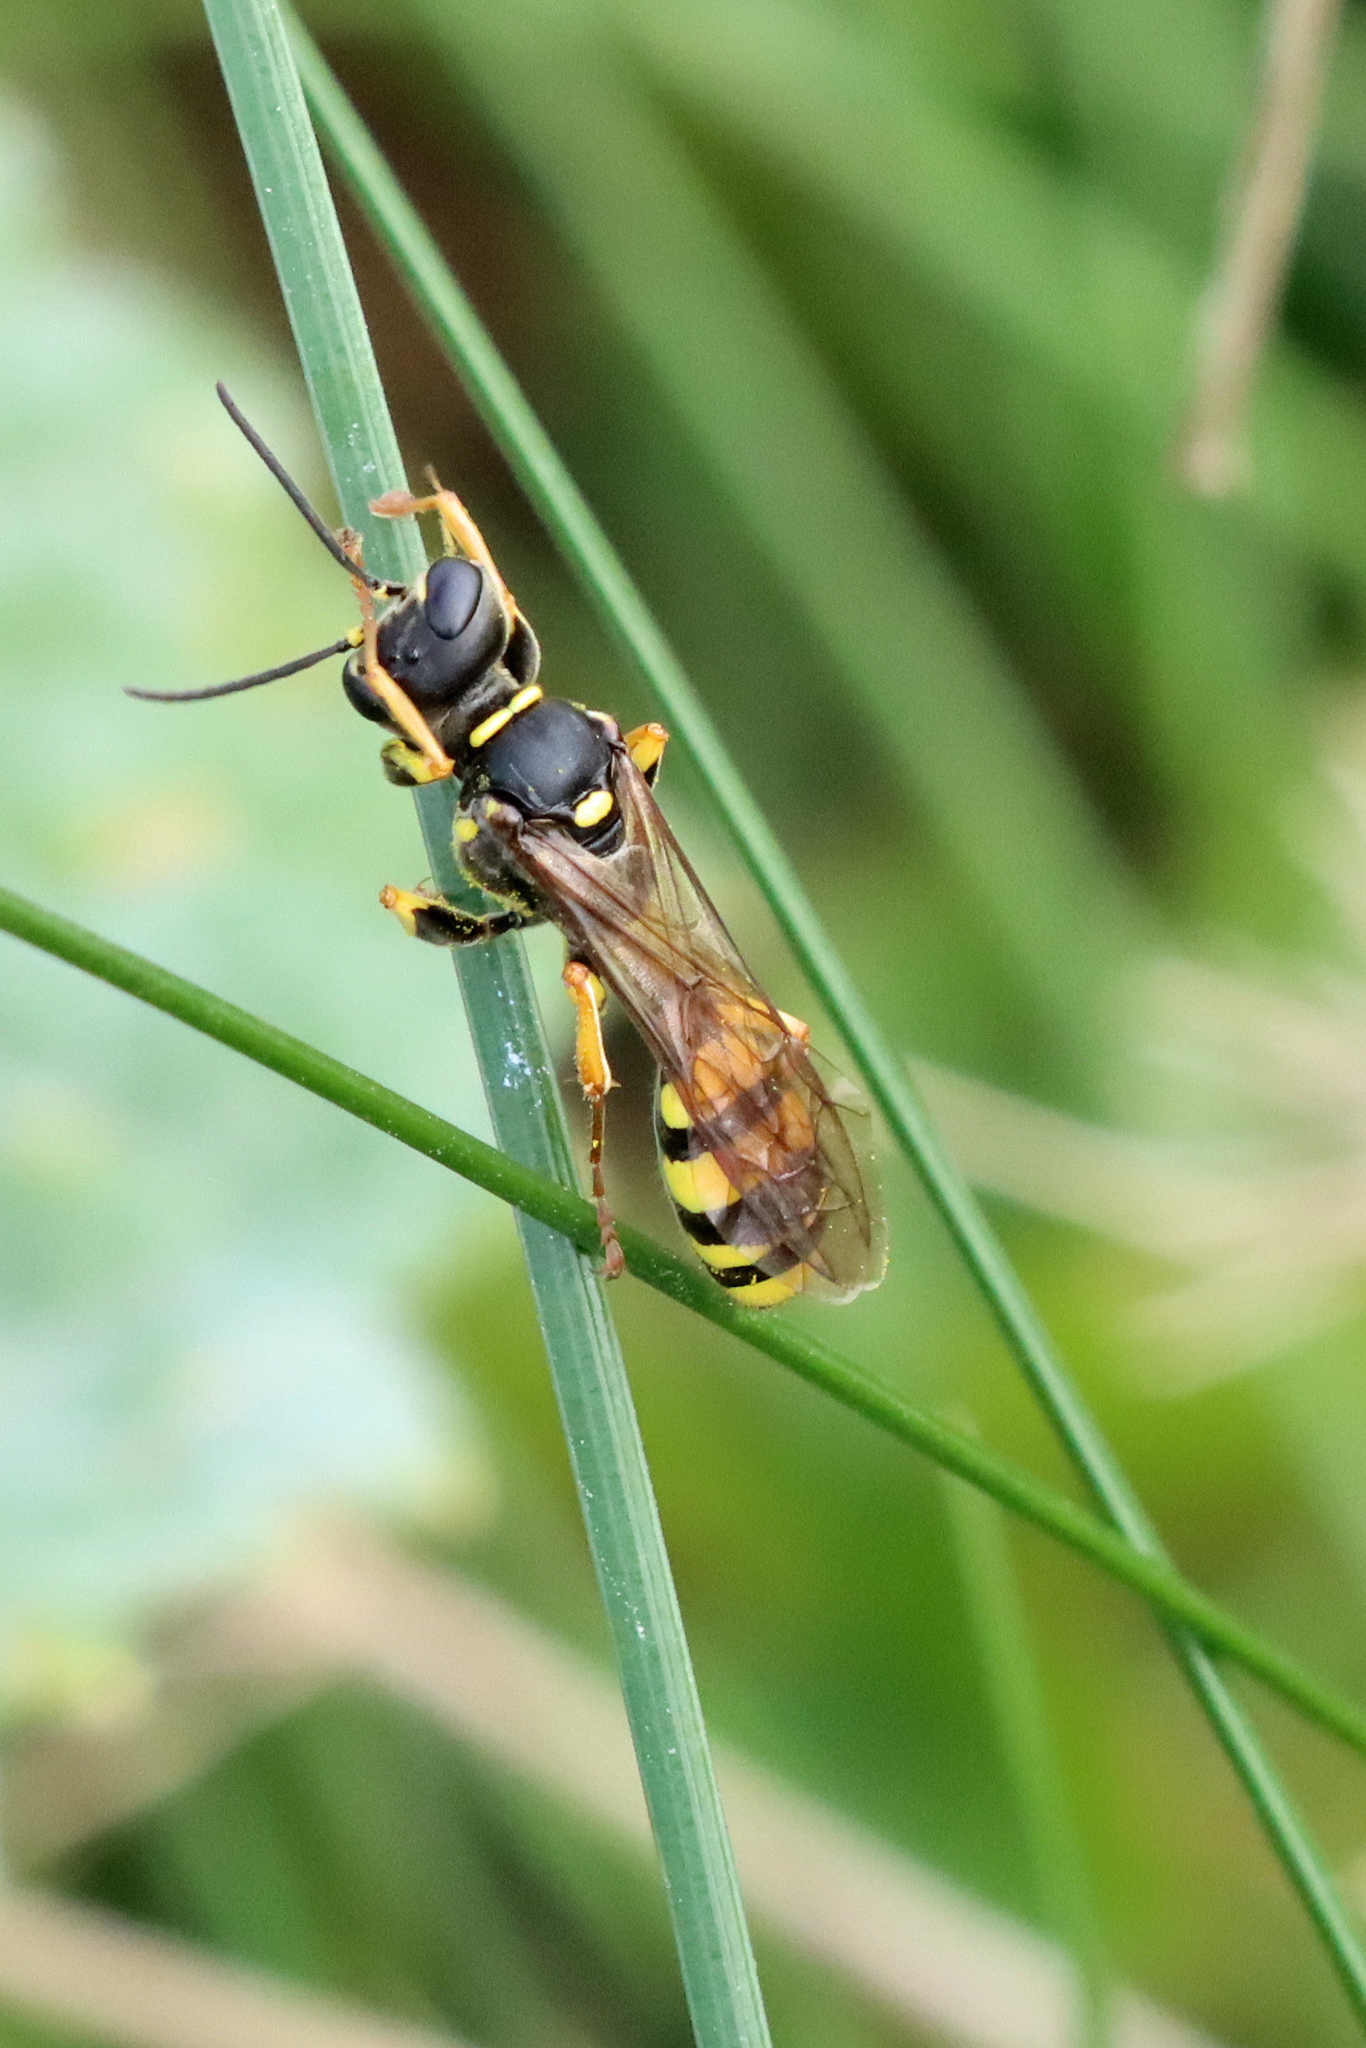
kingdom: Animalia
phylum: Arthropoda
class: Insecta
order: Hymenoptera
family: Crabronidae
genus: Mellinus
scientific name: Mellinus arvensis
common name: Field digger wasp
